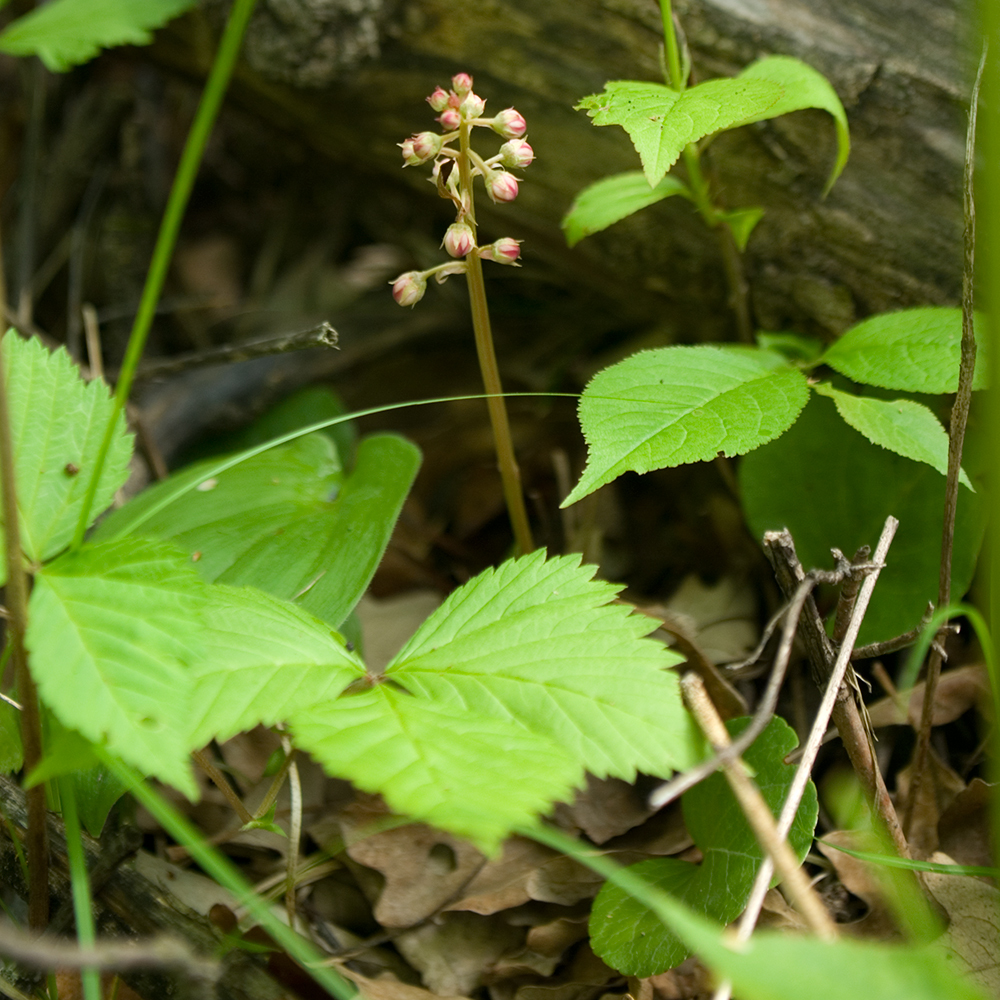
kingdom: Plantae
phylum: Tracheophyta
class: Magnoliopsida
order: Ericales
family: Ericaceae
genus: Pyrola
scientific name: Pyrola asarifolia
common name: Bog wintergreen
